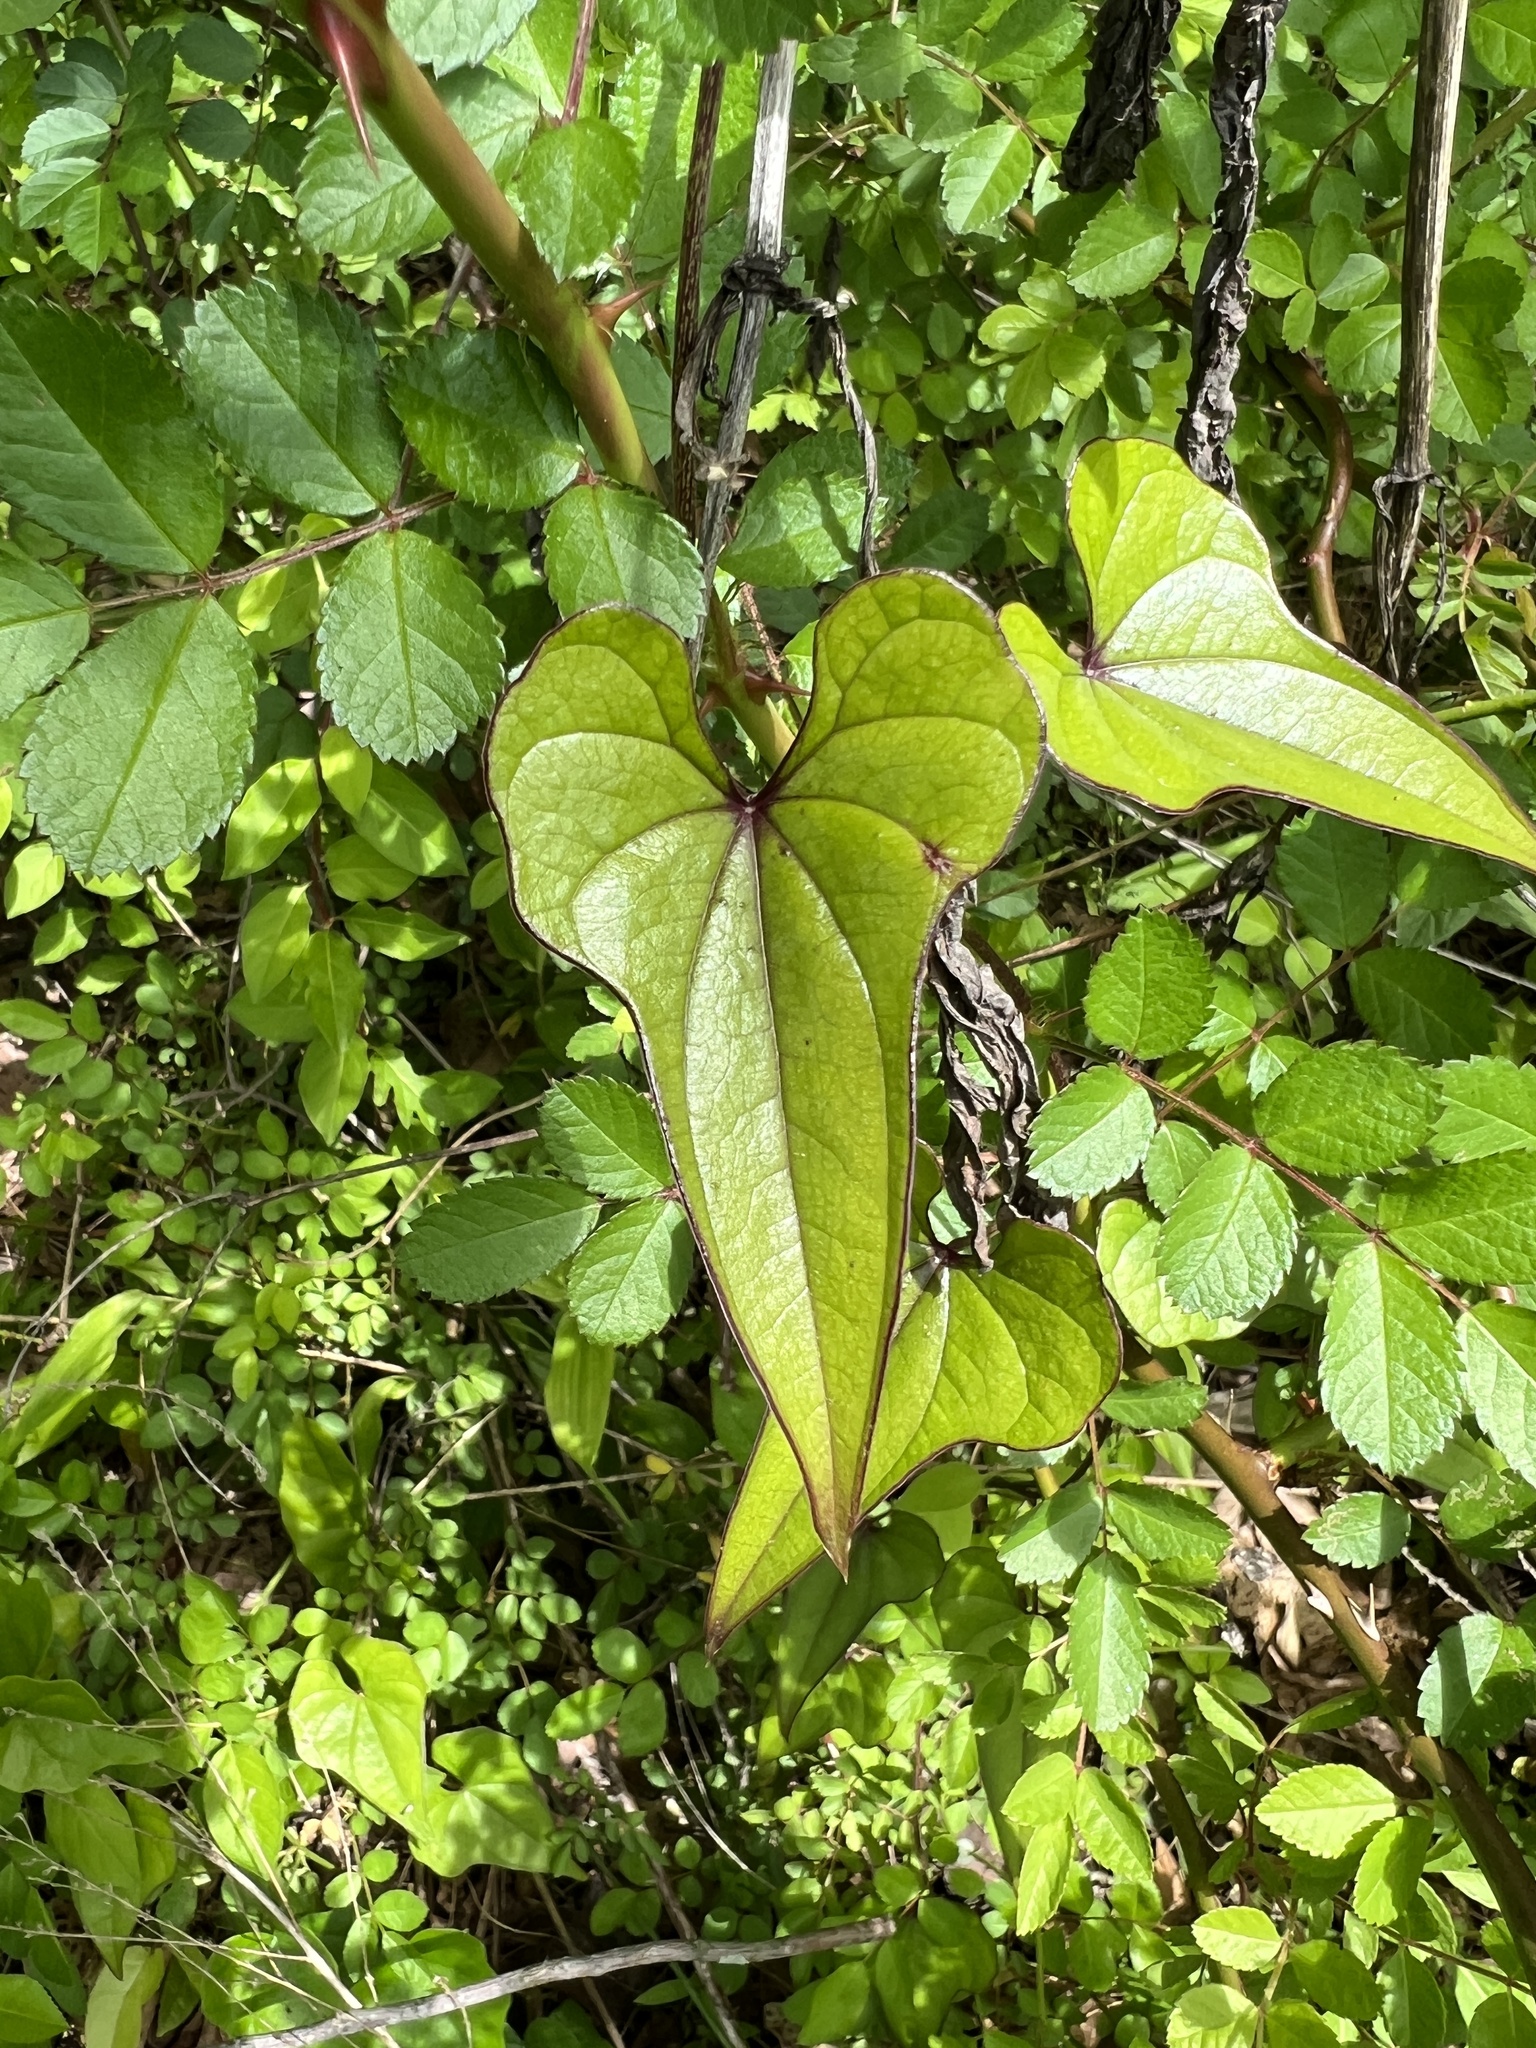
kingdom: Plantae
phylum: Tracheophyta
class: Liliopsida
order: Dioscoreales
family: Dioscoreaceae
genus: Dioscorea
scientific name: Dioscorea polystachya
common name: Chinese yam
